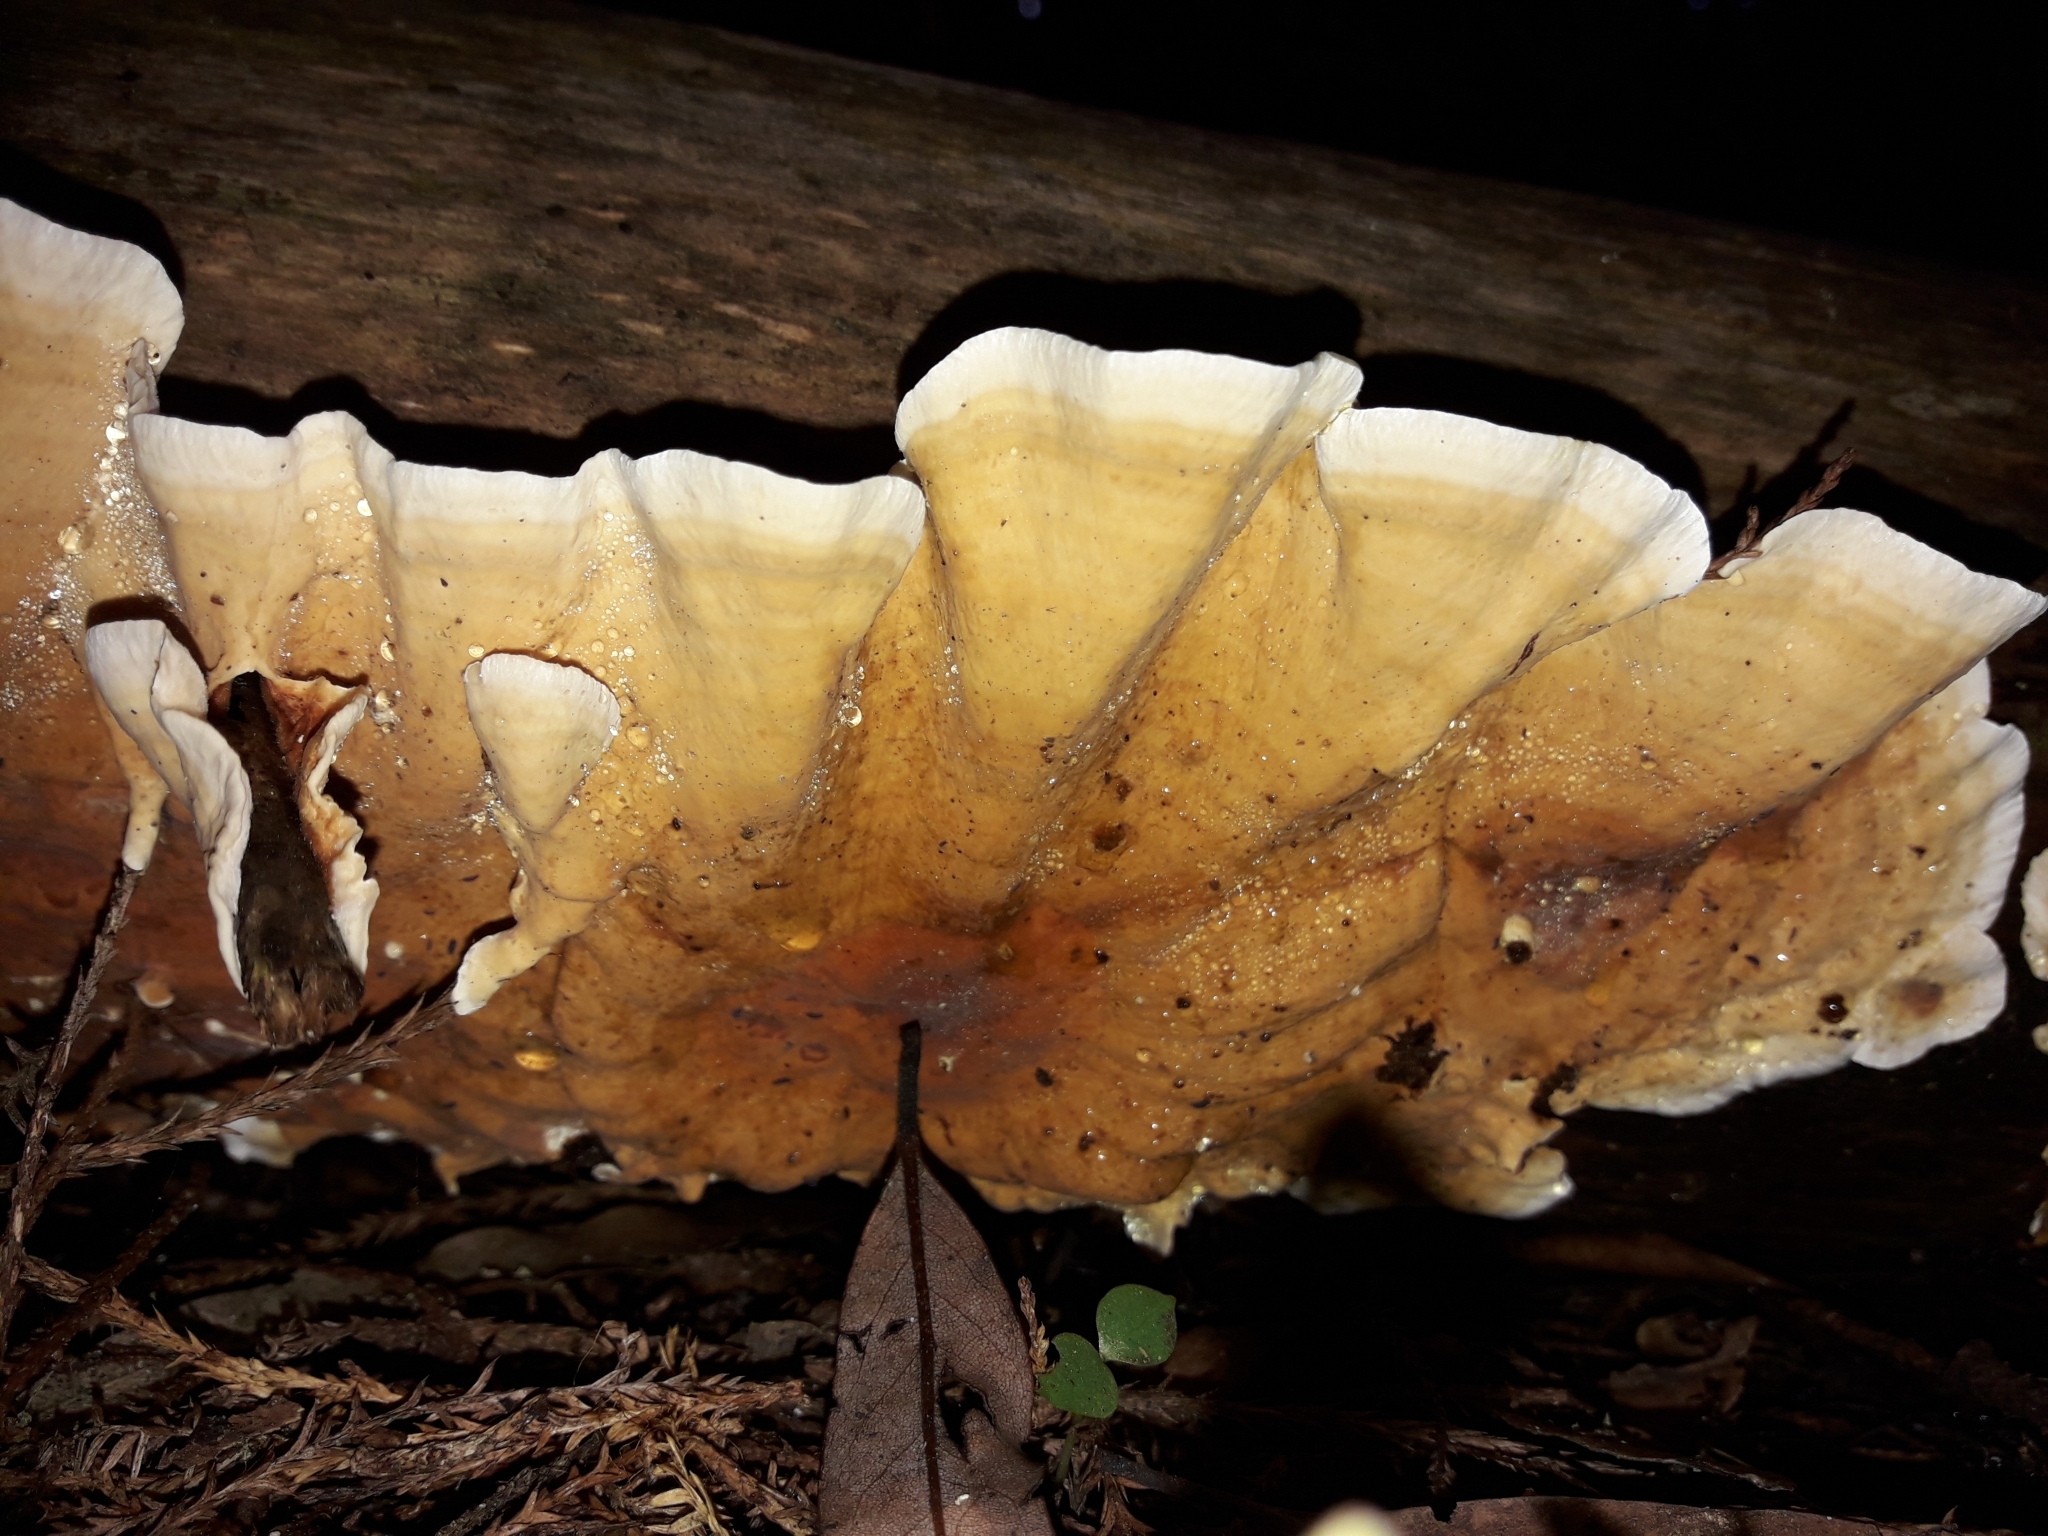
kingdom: Fungi
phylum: Basidiomycota
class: Agaricomycetes
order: Russulales
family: Stereaceae
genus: Stereum
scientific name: Stereum versicolor
